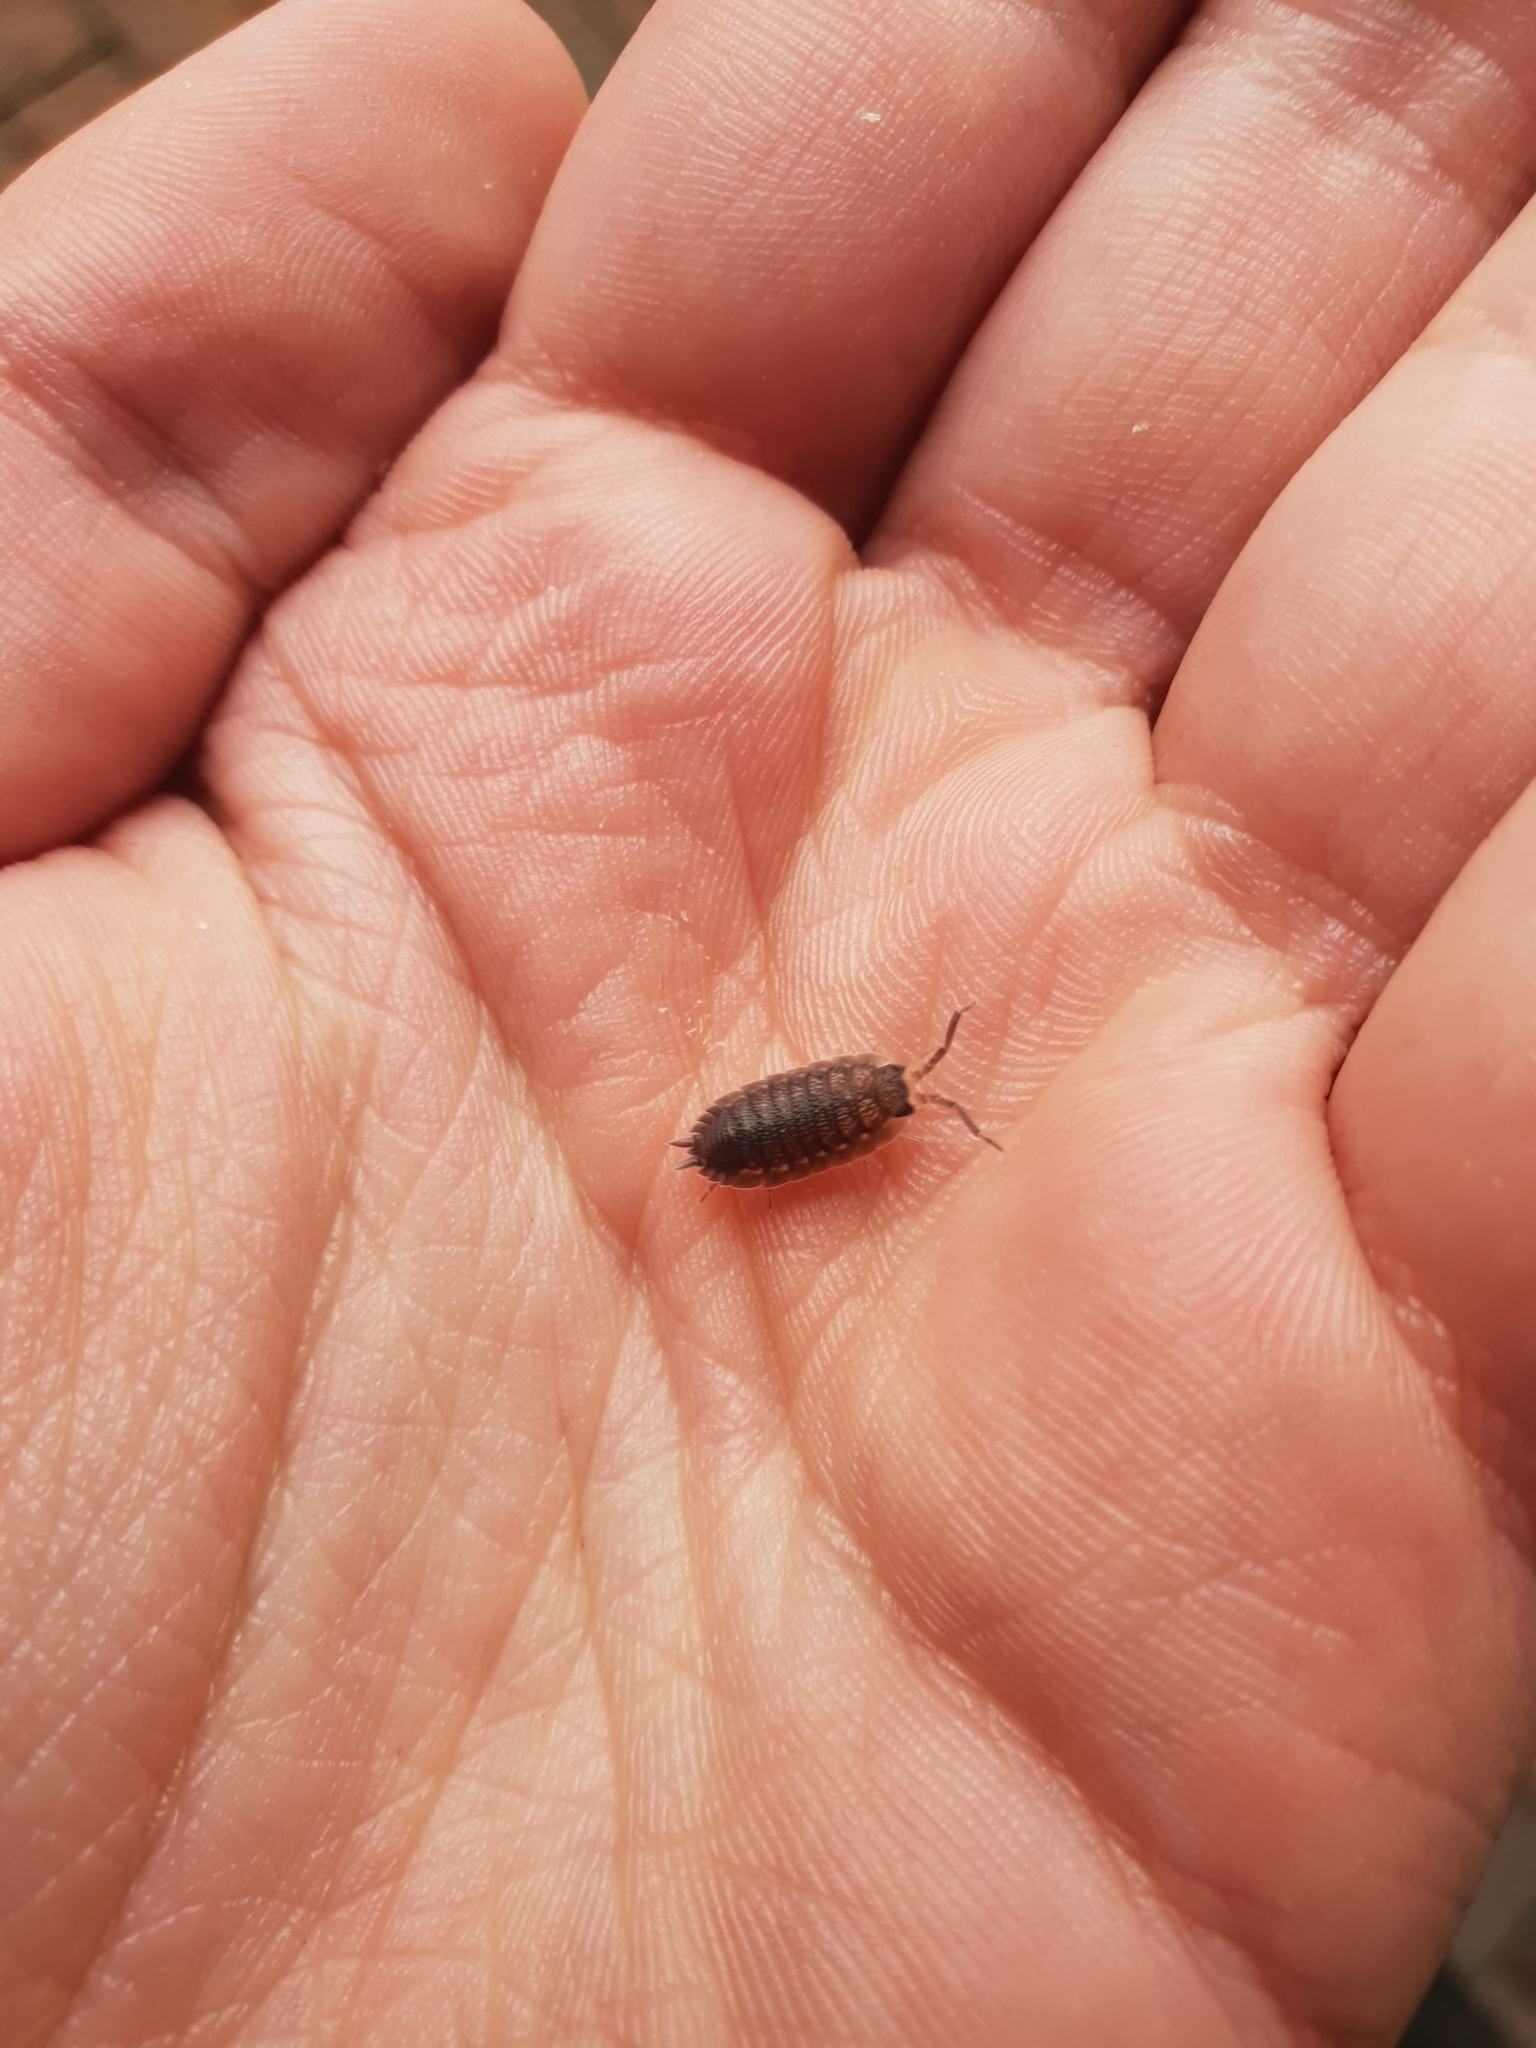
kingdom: Animalia
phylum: Arthropoda
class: Malacostraca
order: Isopoda
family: Porcellionidae
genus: Porcellio
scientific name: Porcellio scaber
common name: Common rough woodlouse
